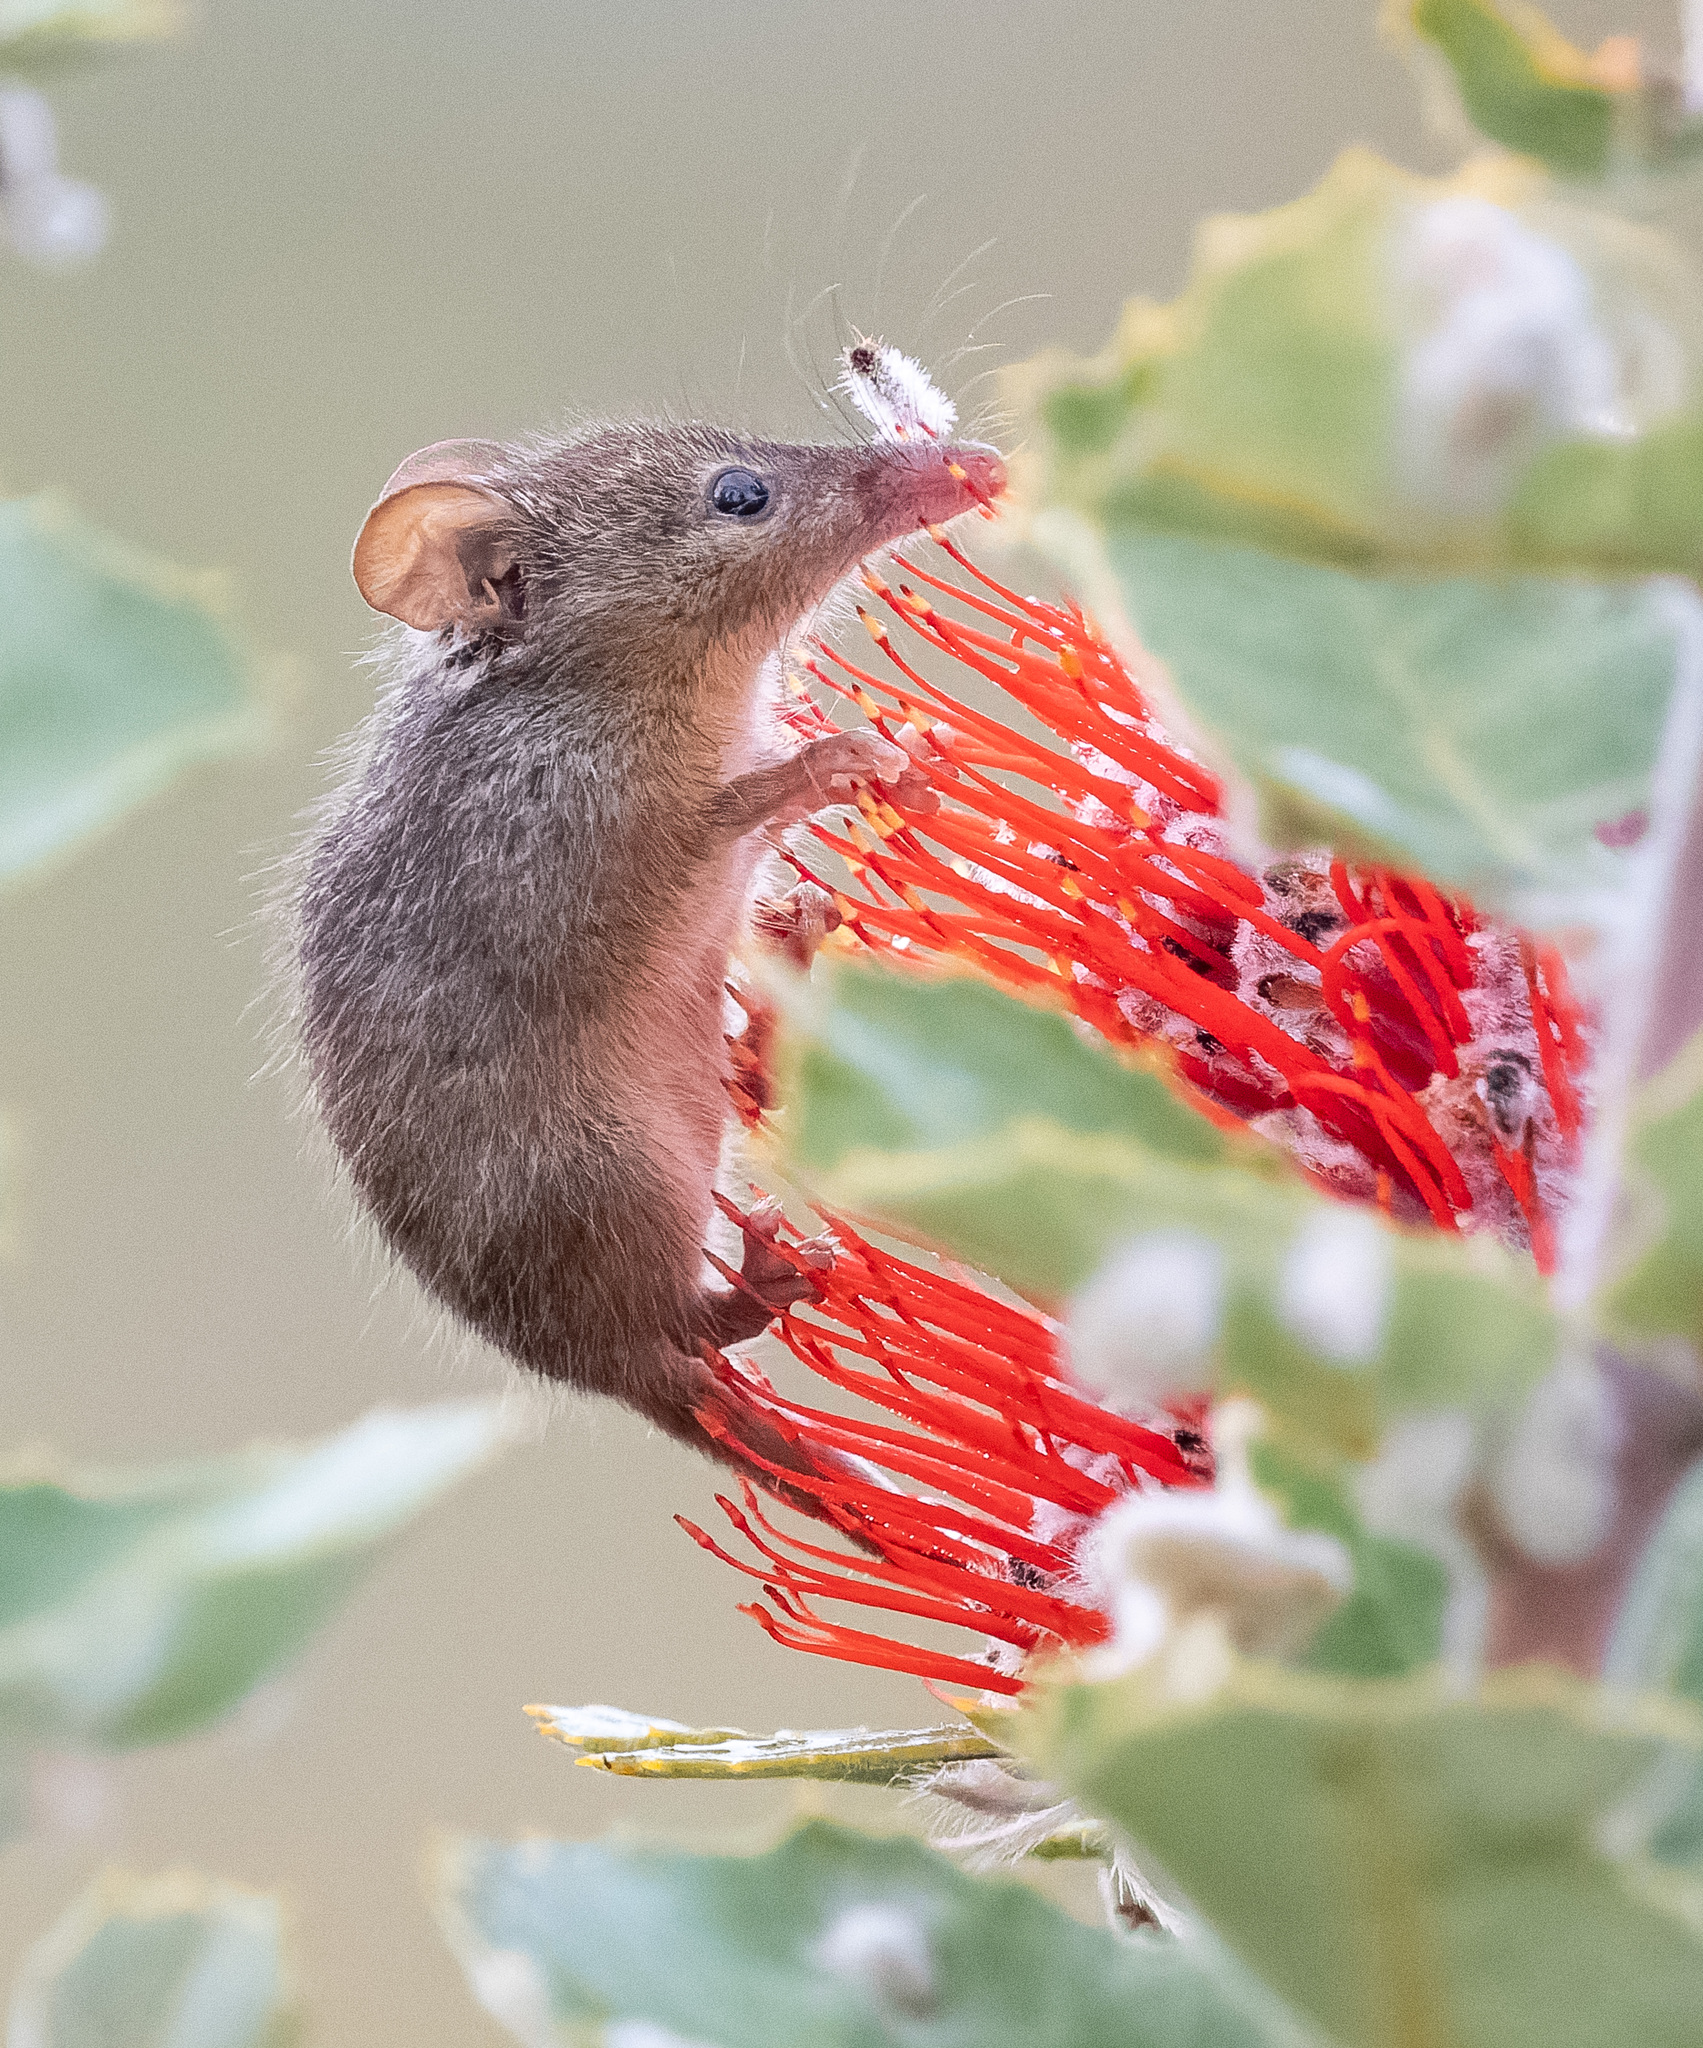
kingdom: Animalia
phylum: Chordata
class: Mammalia
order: Diprotodontia
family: Tarsipedidae
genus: Tarsipes
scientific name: Tarsipes rostratus
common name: Honey possum
